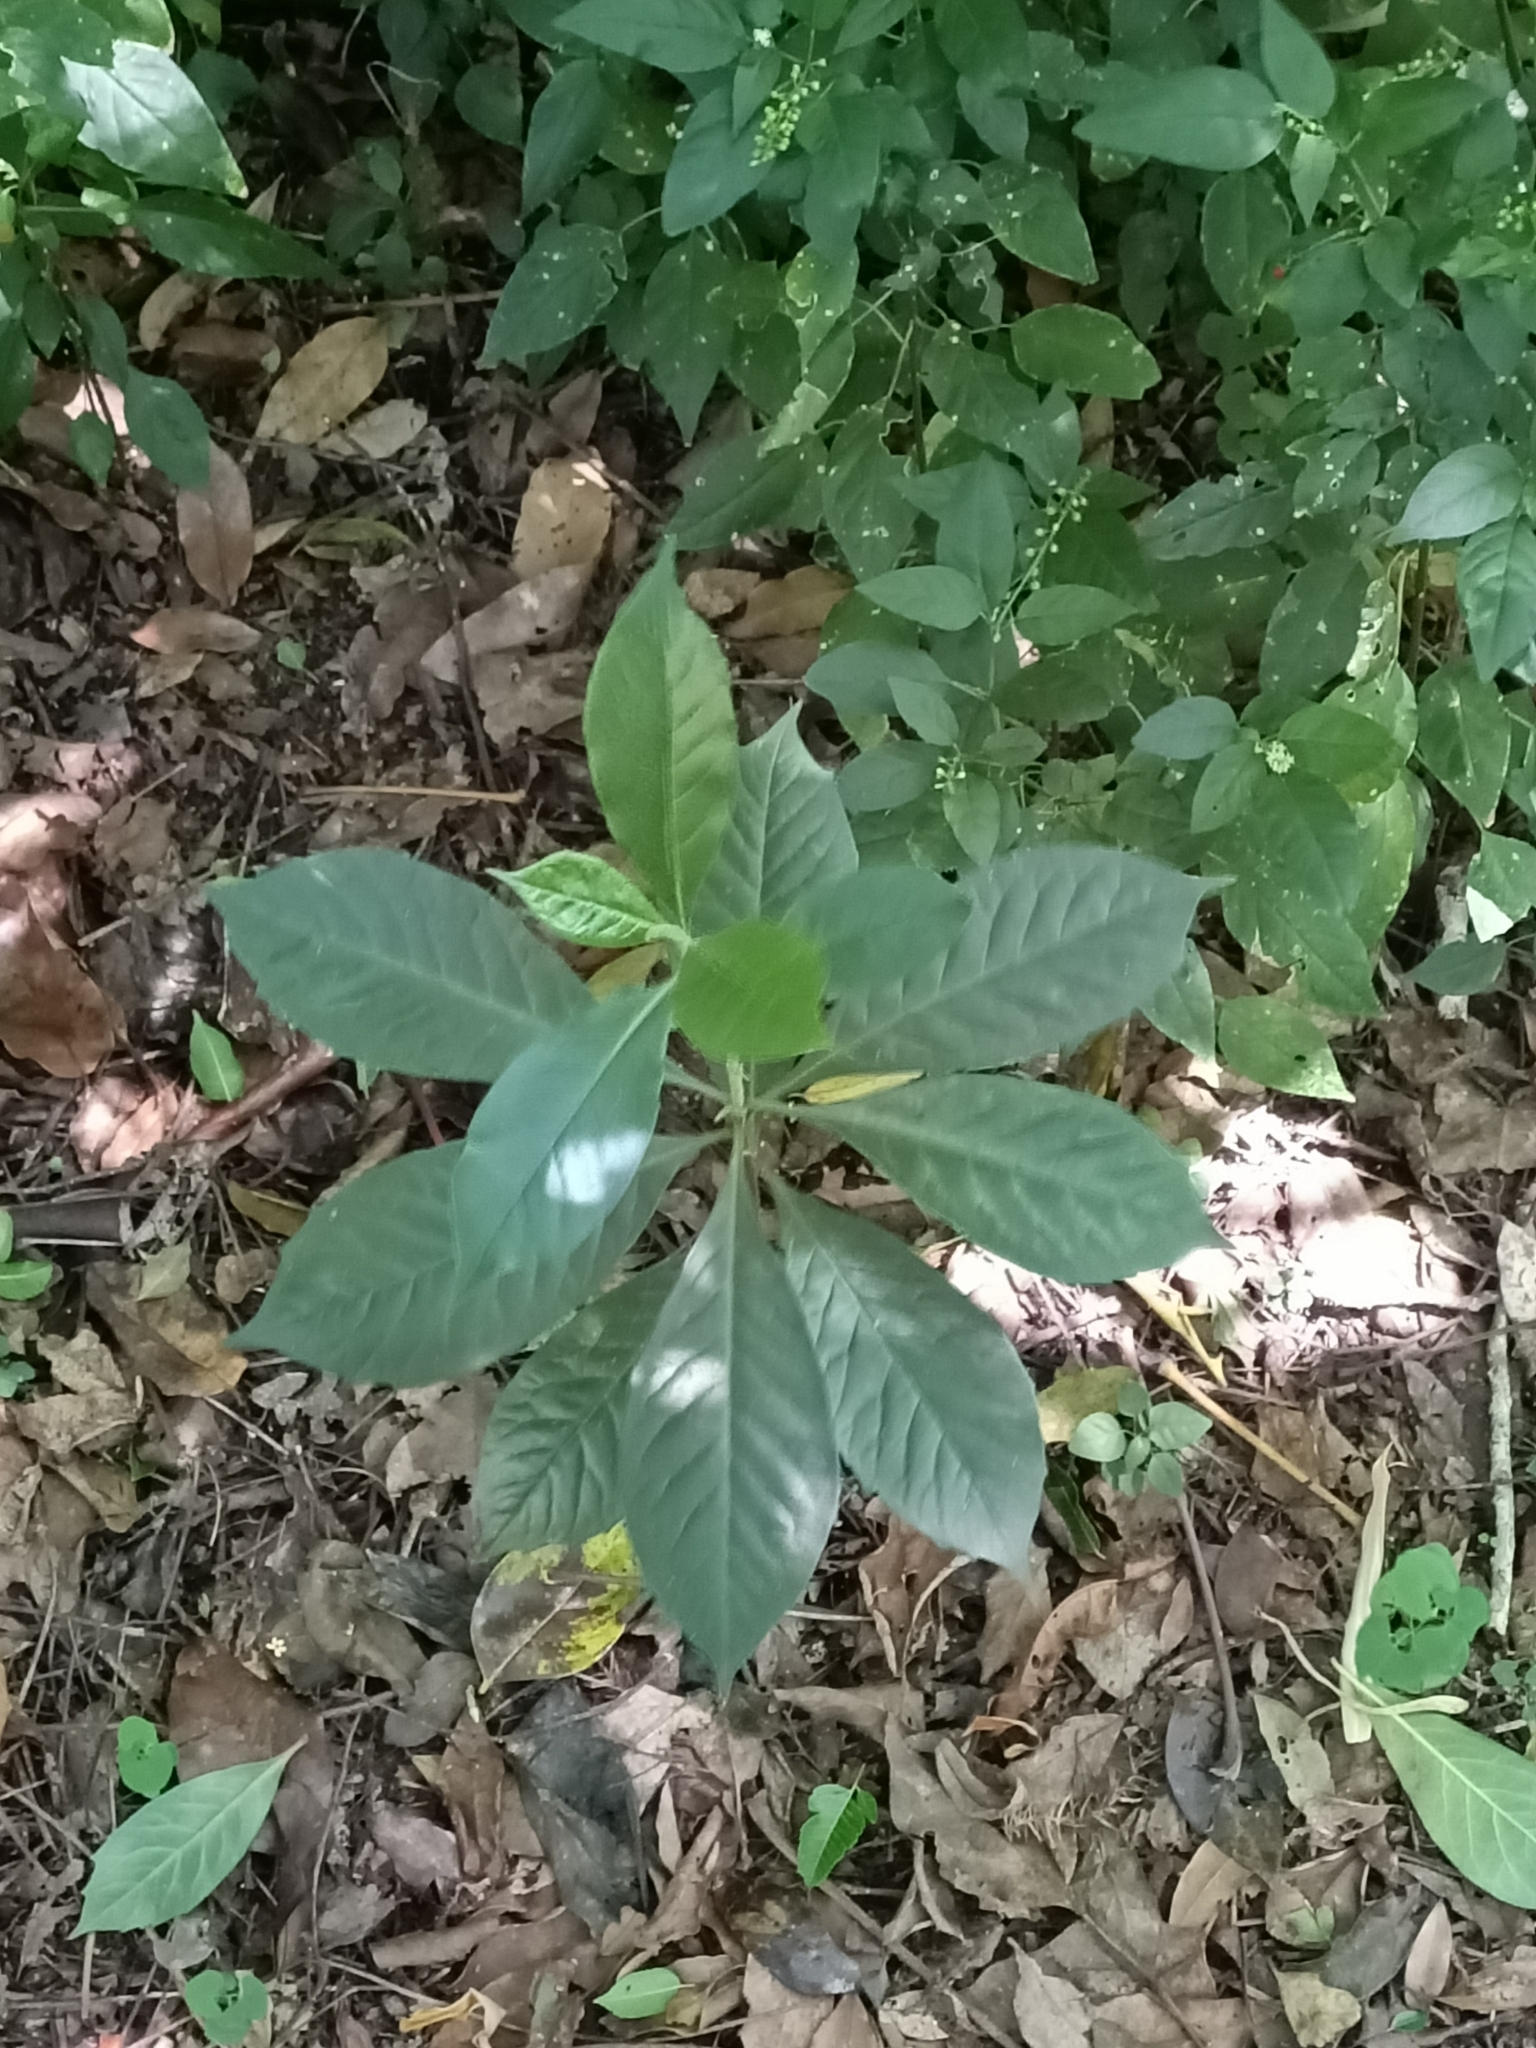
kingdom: Plantae
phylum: Tracheophyta
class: Magnoliopsida
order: Apiales
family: Pittosporaceae
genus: Hymenosporum
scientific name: Hymenosporum flavum
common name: Native frangipani
